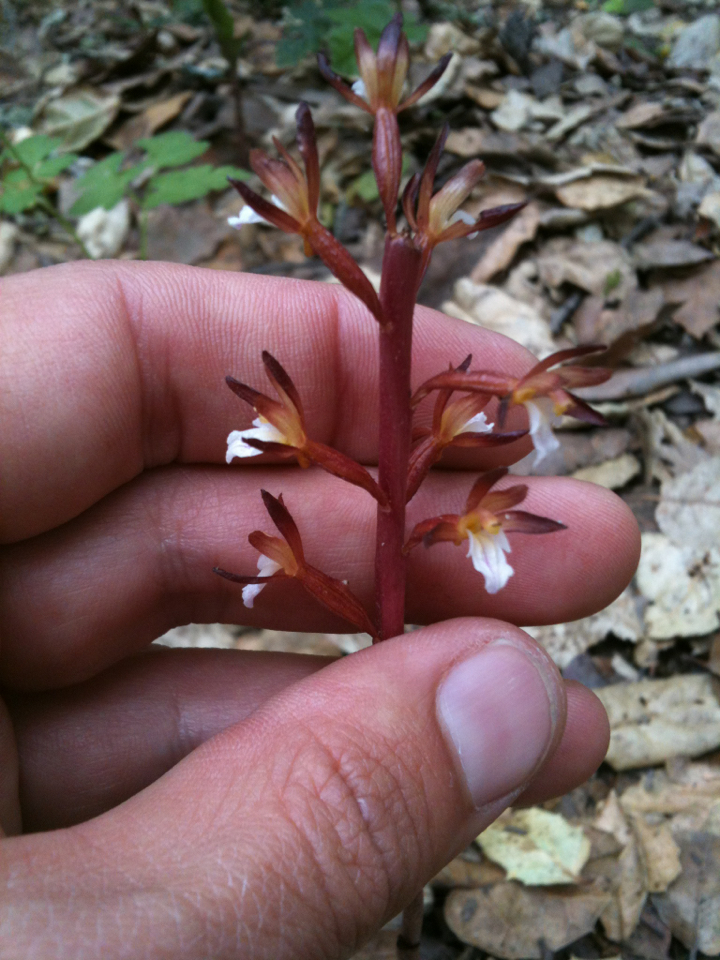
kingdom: Plantae
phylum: Tracheophyta
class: Liliopsida
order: Asparagales
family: Orchidaceae
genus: Corallorhiza
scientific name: Corallorhiza maculata
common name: Spotted coralroot
